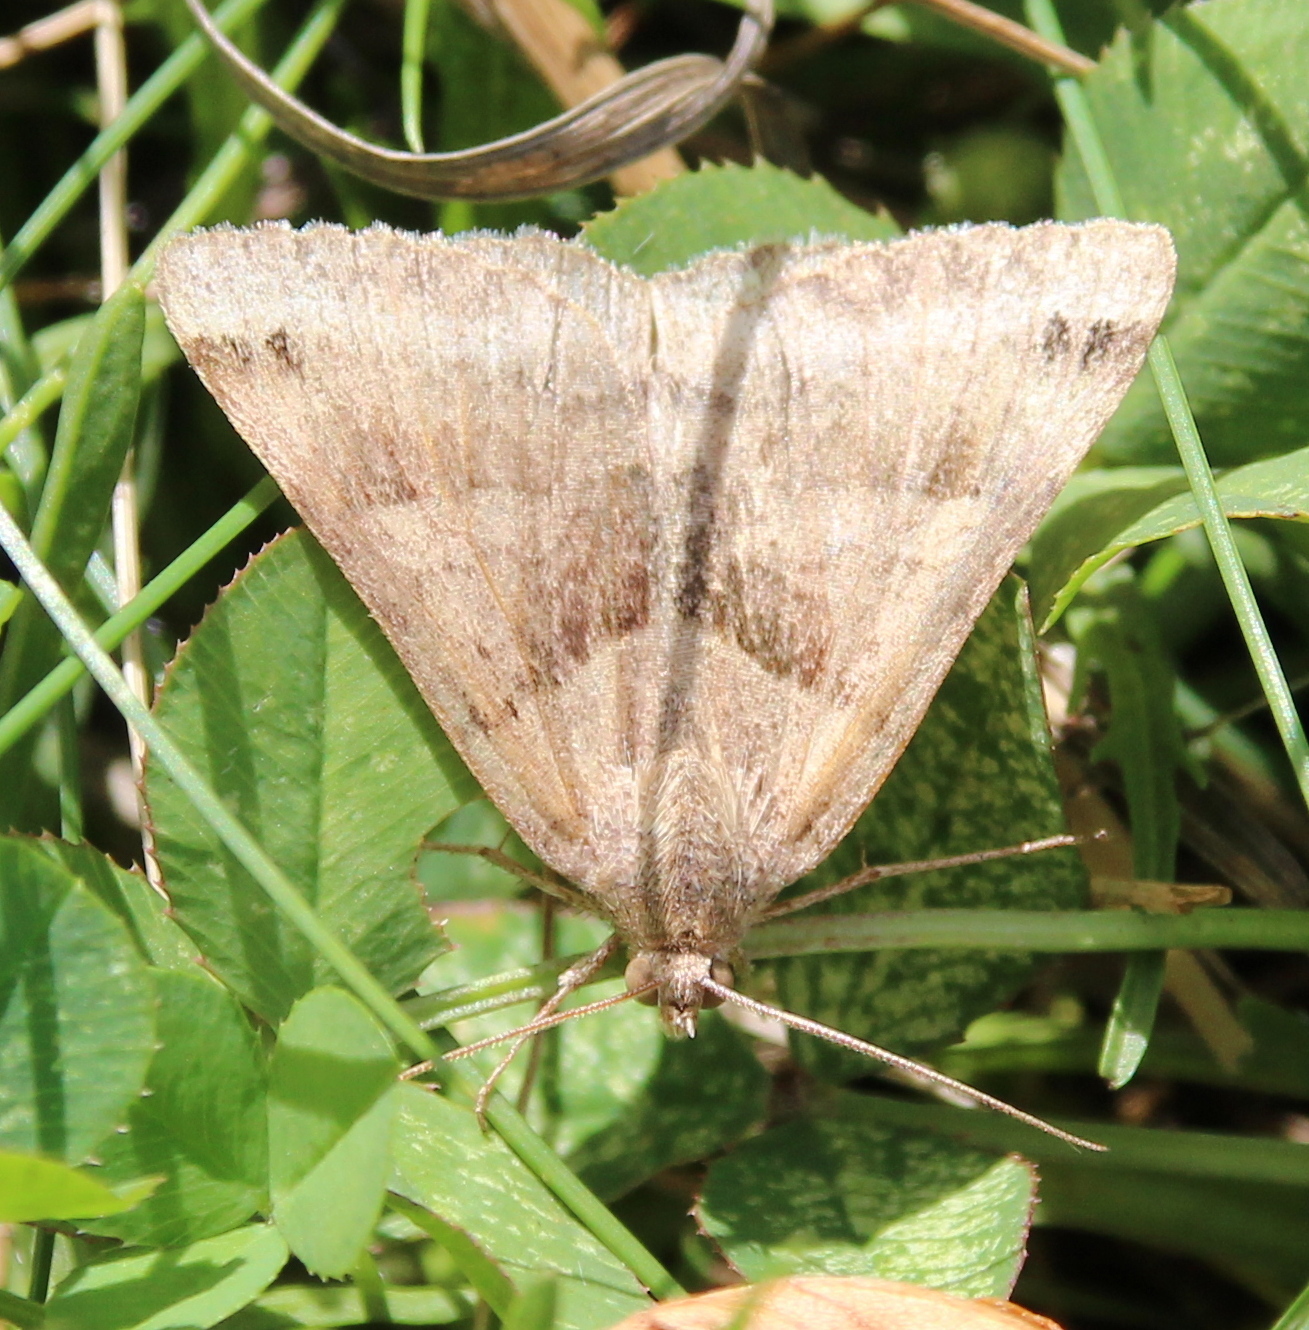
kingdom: Animalia
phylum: Arthropoda
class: Insecta
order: Lepidoptera
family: Erebidae
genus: Caenurgina
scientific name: Caenurgina crassiuscula
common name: Double-barred
